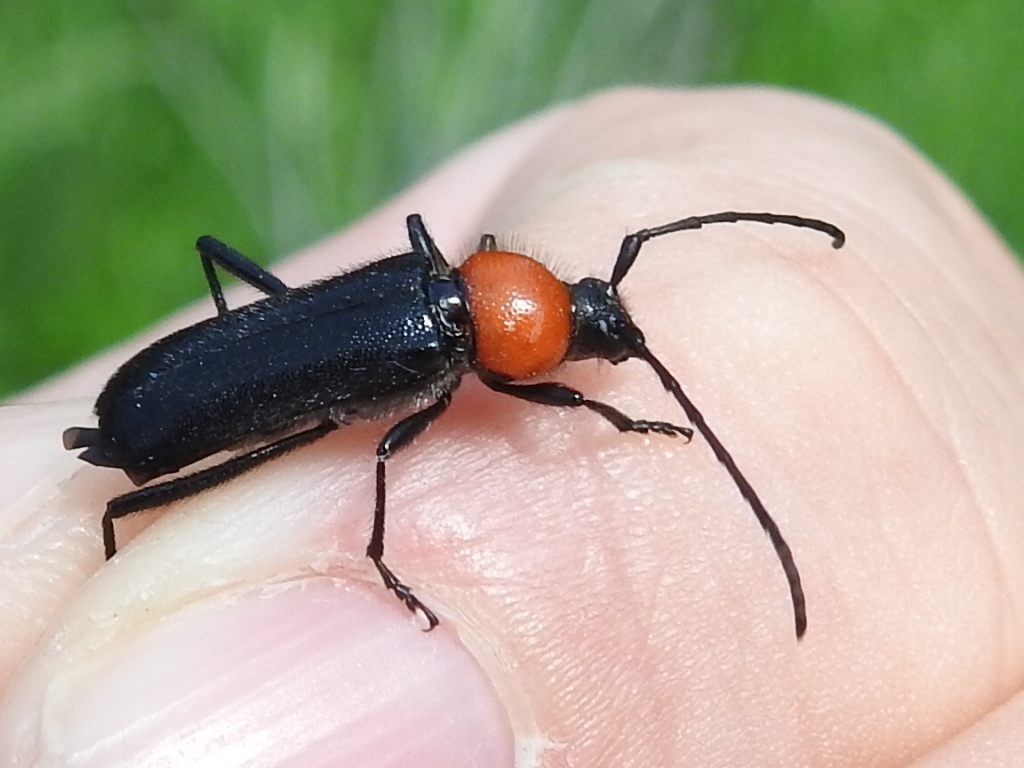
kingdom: Animalia
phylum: Arthropoda
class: Insecta
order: Coleoptera
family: Cerambycidae
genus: Batyle
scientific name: Batyle ignicollis
